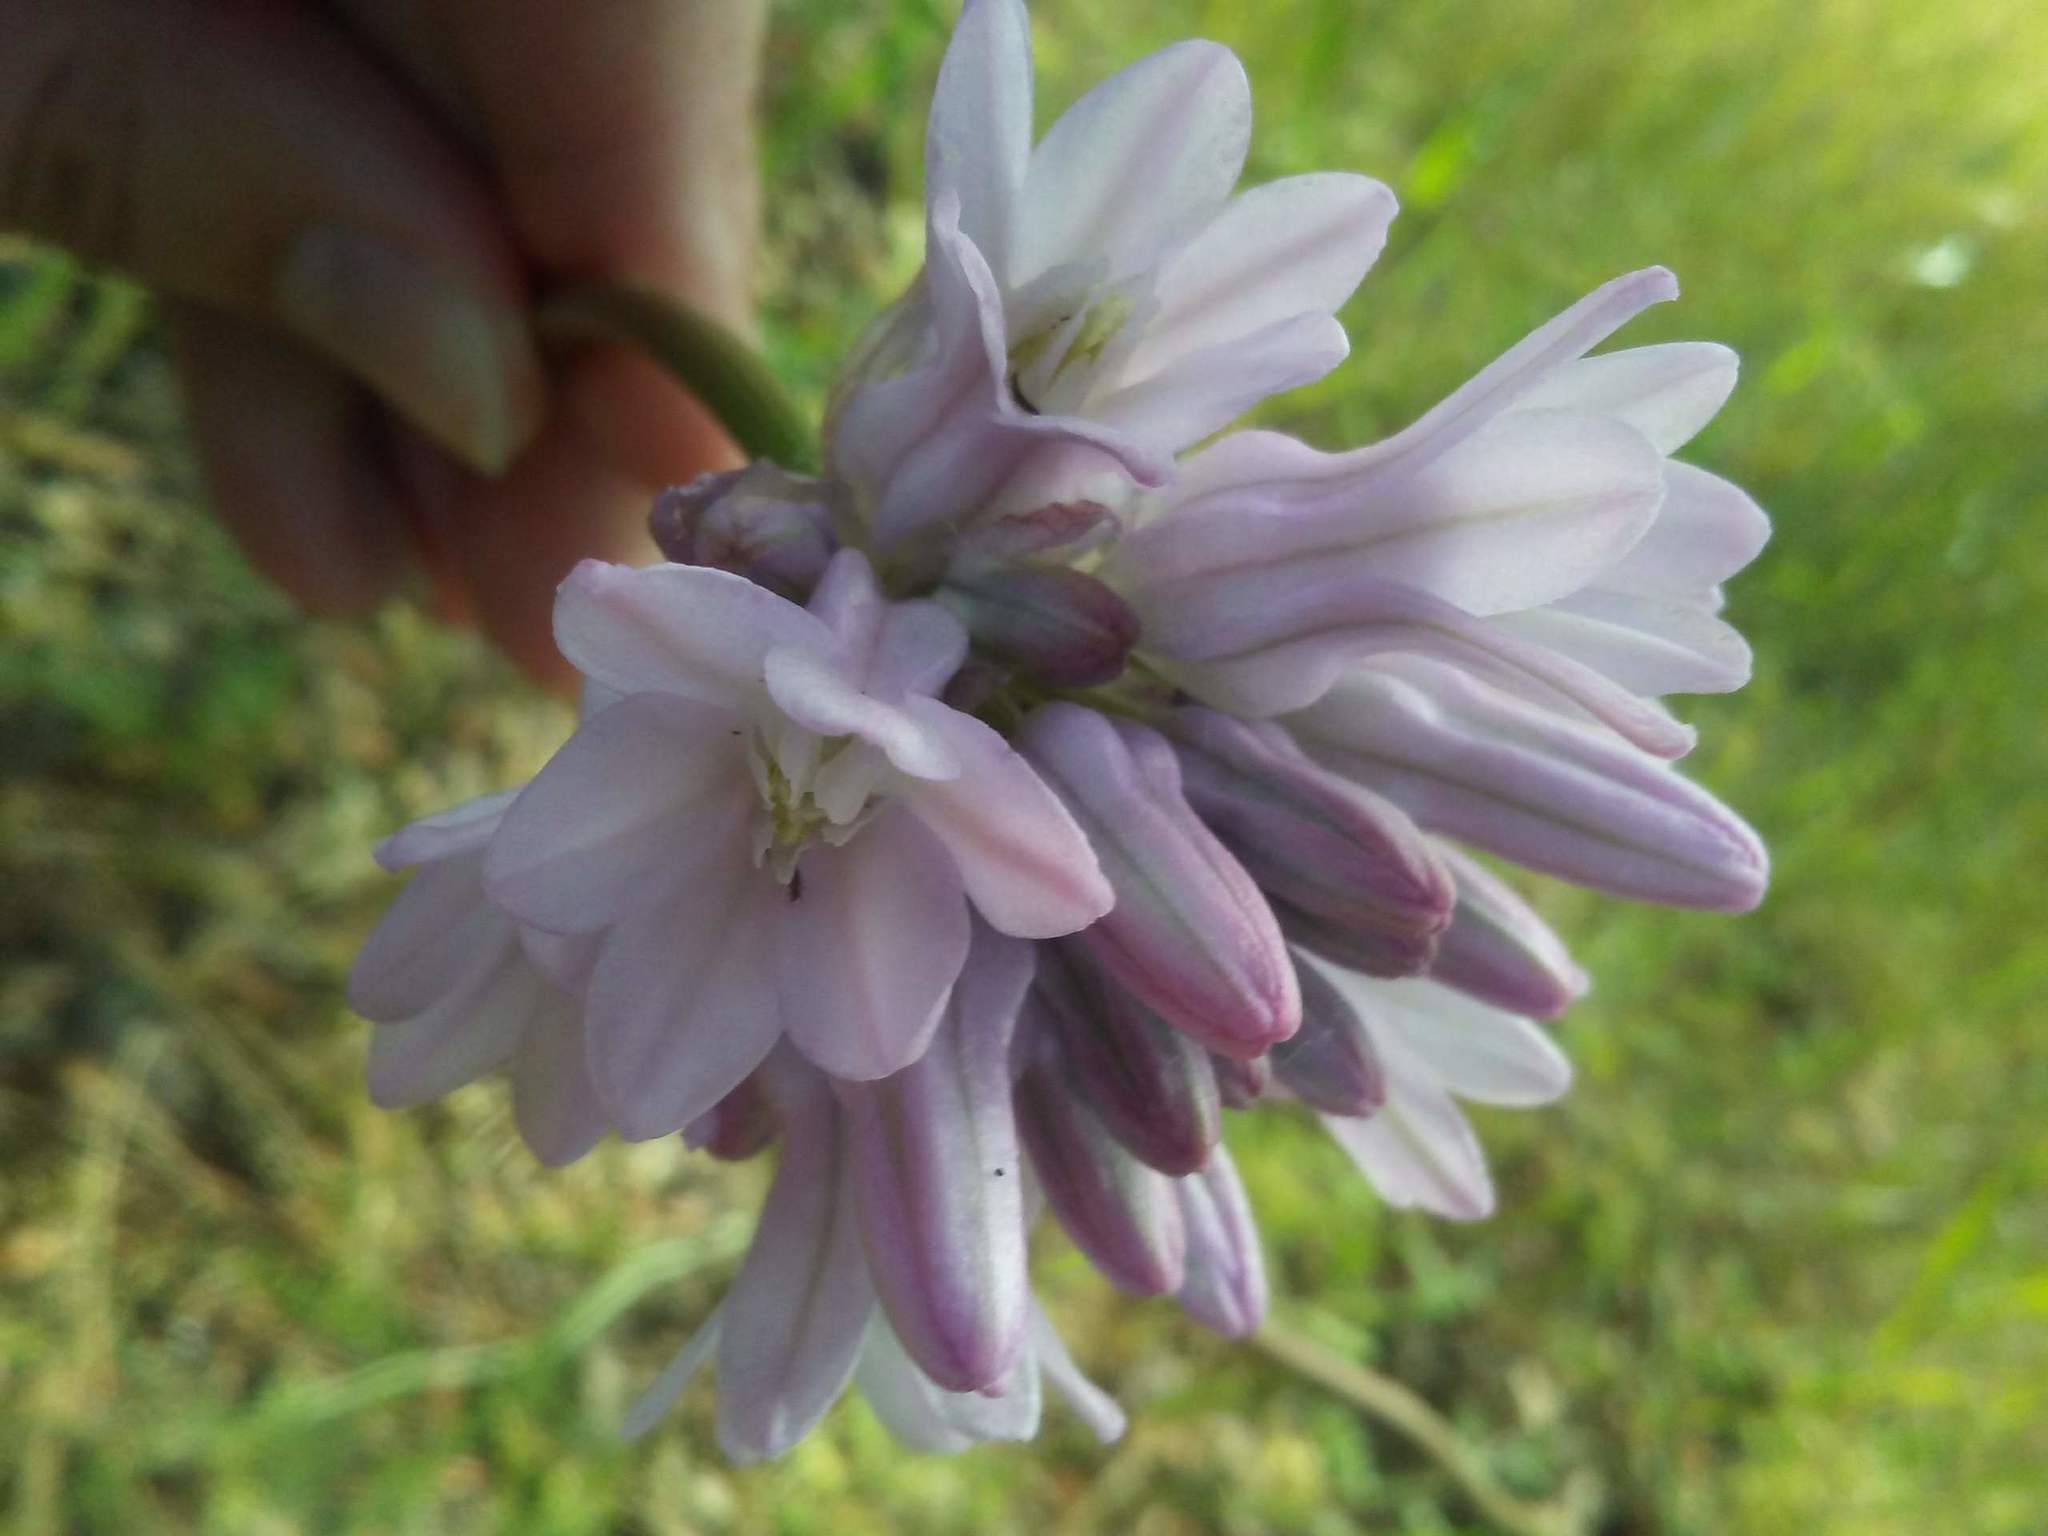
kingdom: Plantae
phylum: Tracheophyta
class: Liliopsida
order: Asparagales
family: Asparagaceae
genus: Dichelostemma
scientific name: Dichelostemma volubile
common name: Trining brodiaea
